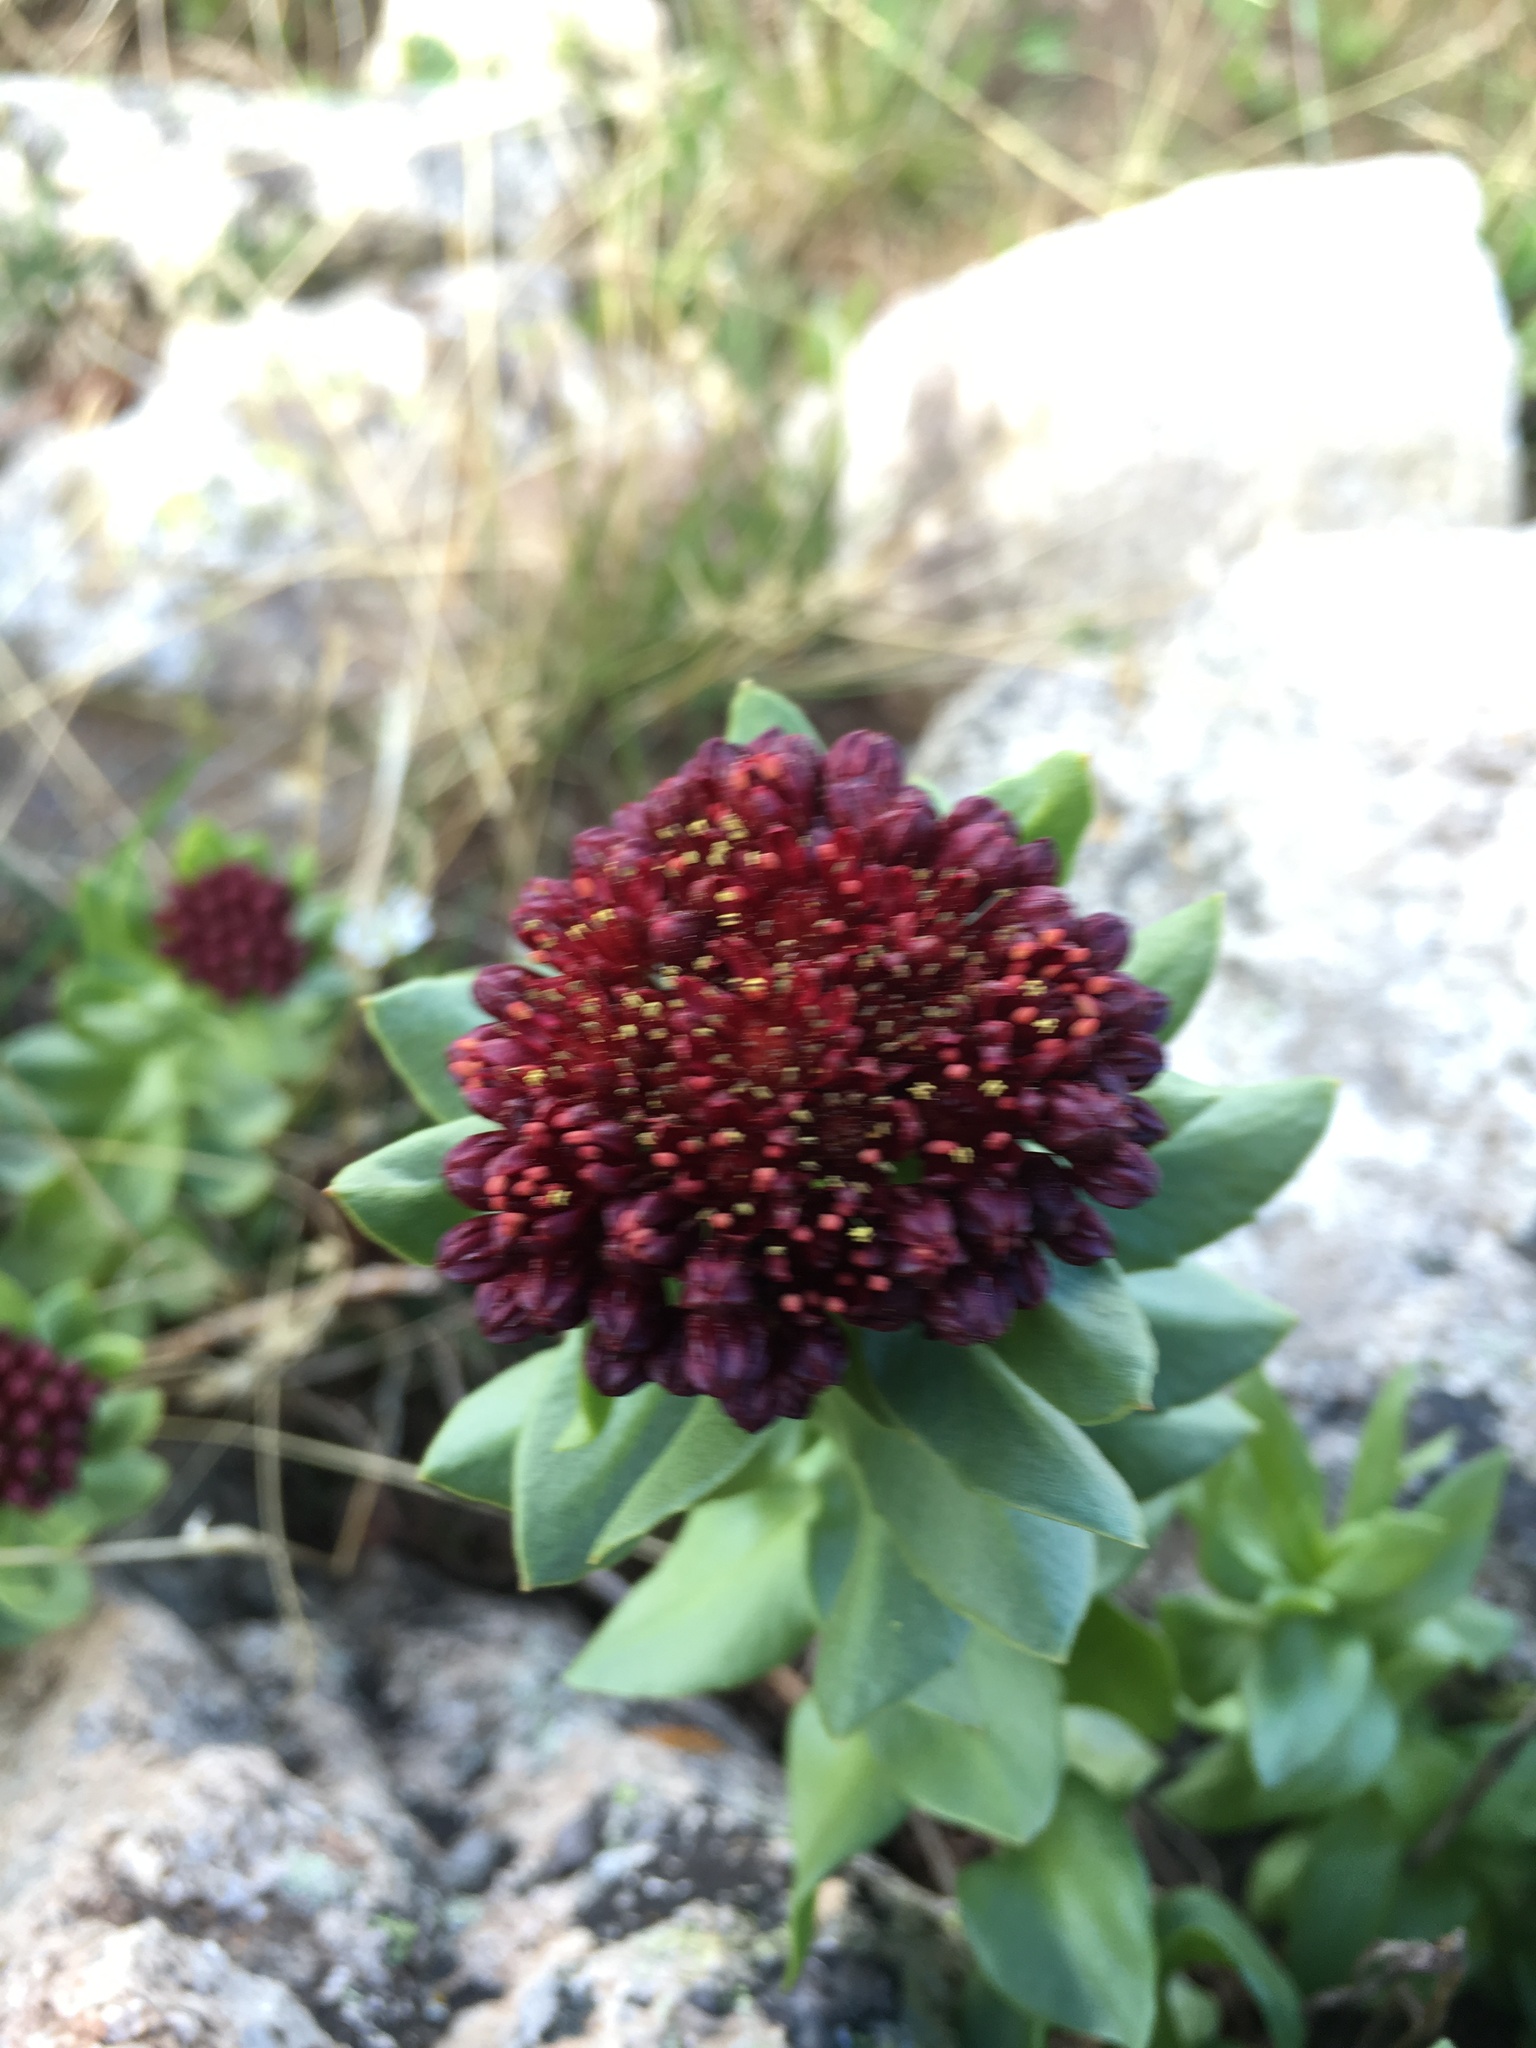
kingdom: Plantae
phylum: Tracheophyta
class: Magnoliopsida
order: Saxifragales
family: Crassulaceae
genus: Rhodiola
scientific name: Rhodiola integrifolia
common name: Western roseroot
